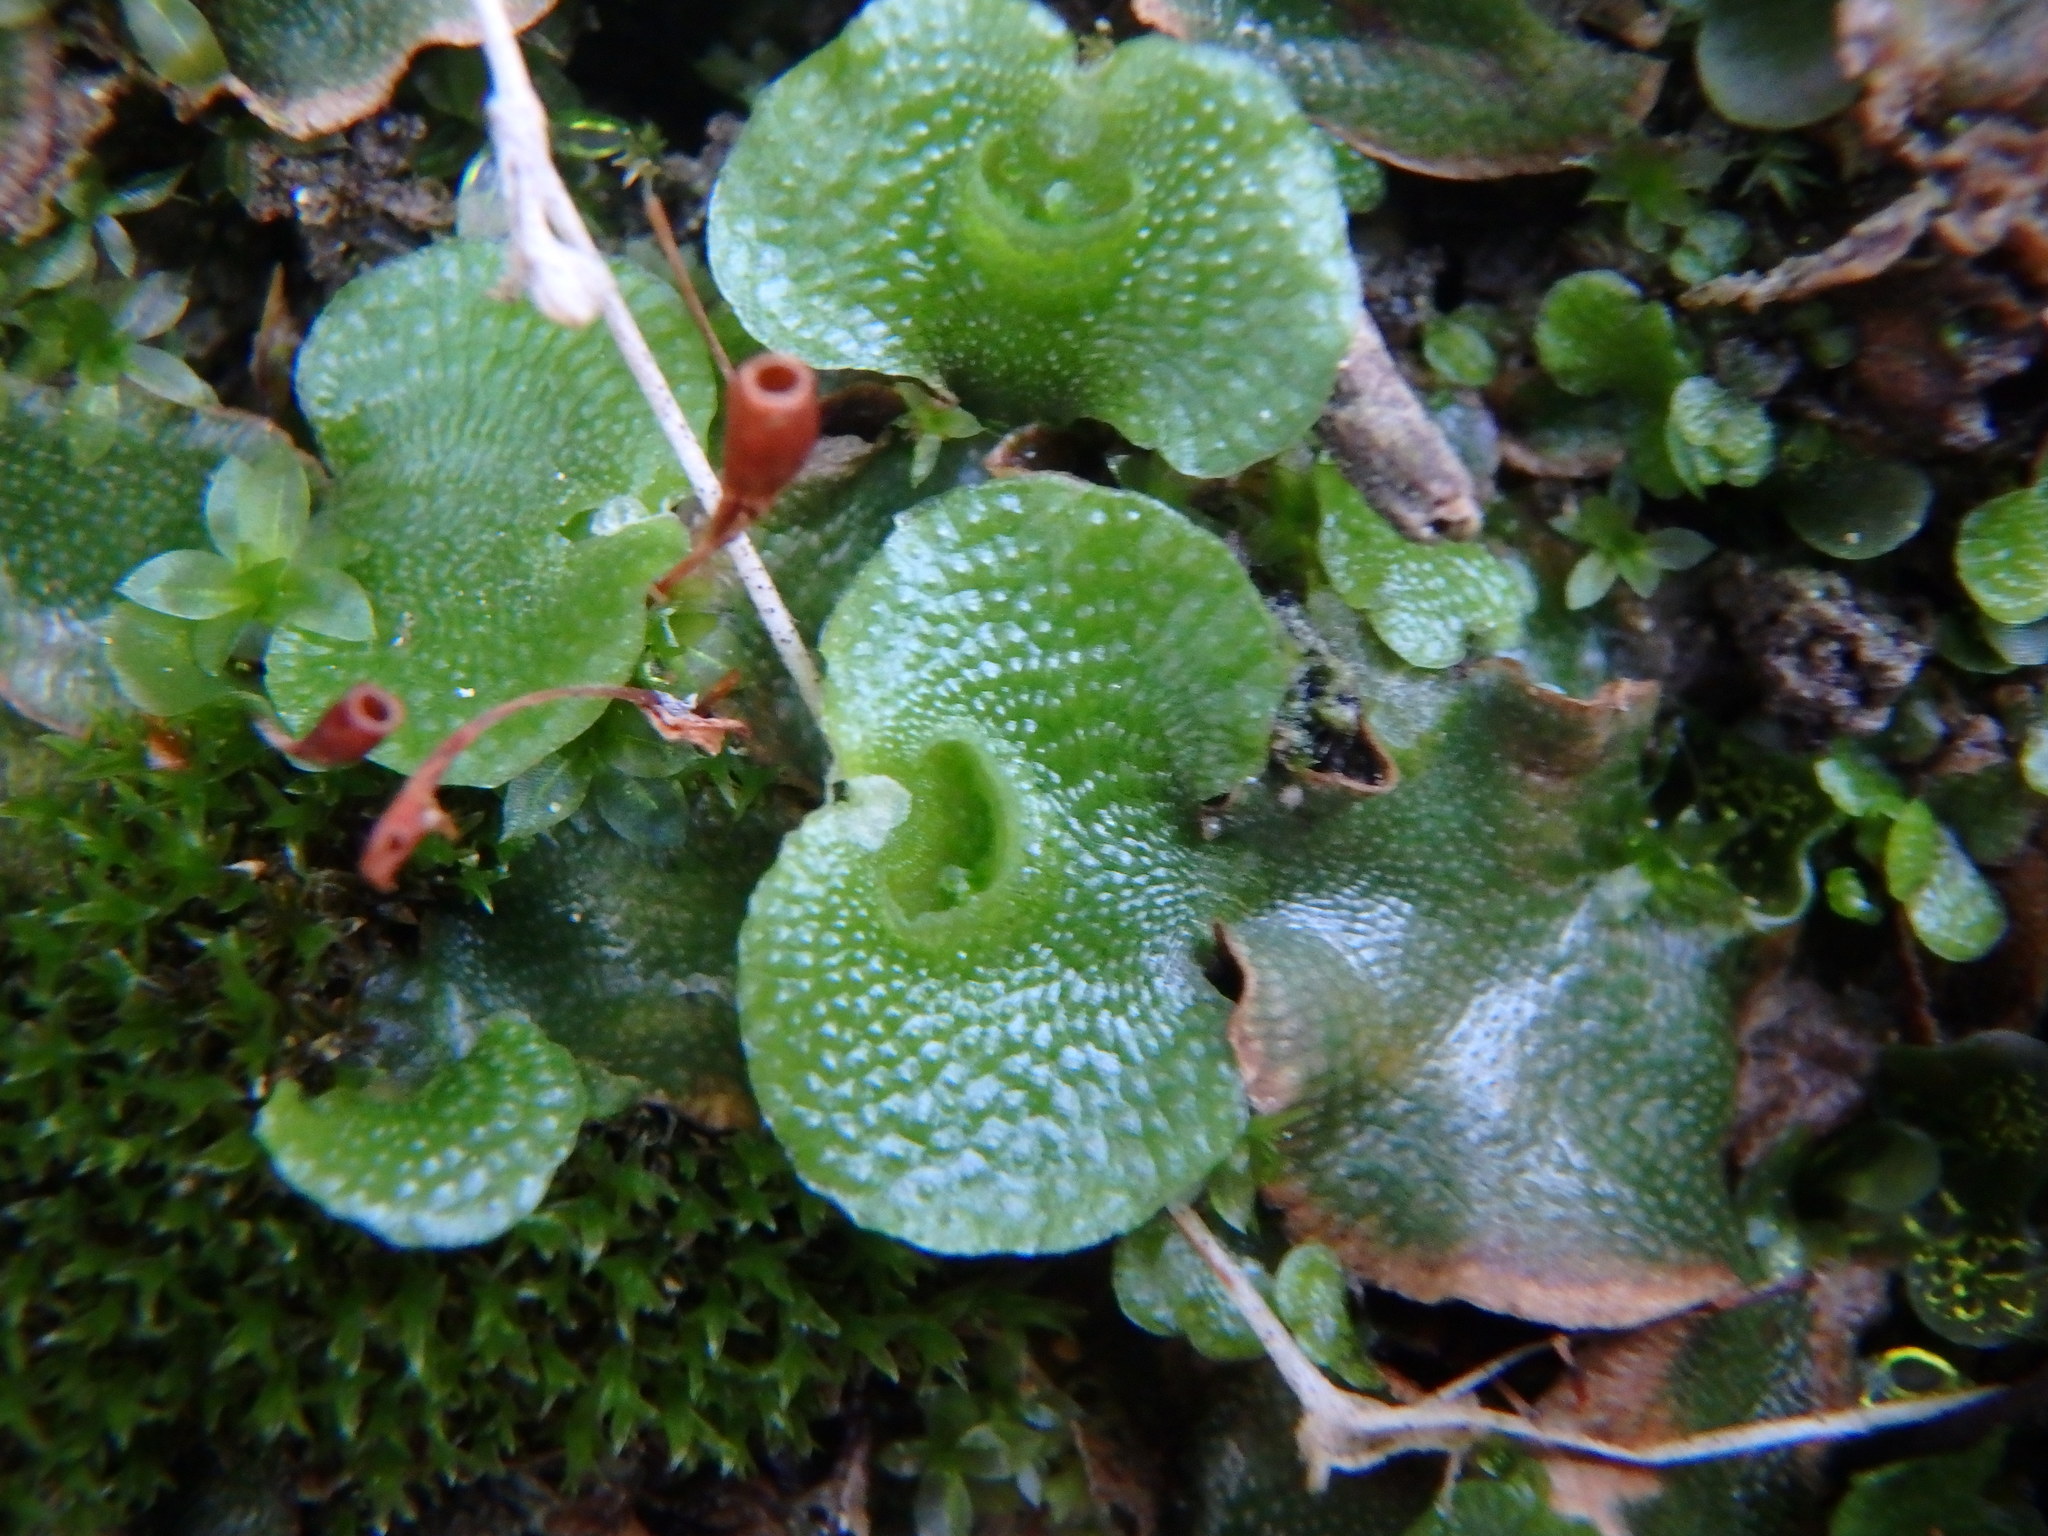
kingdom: Plantae
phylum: Marchantiophyta
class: Marchantiopsida
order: Lunulariales
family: Lunulariaceae
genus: Lunularia
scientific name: Lunularia cruciata
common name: Crescent-cup liverwort
